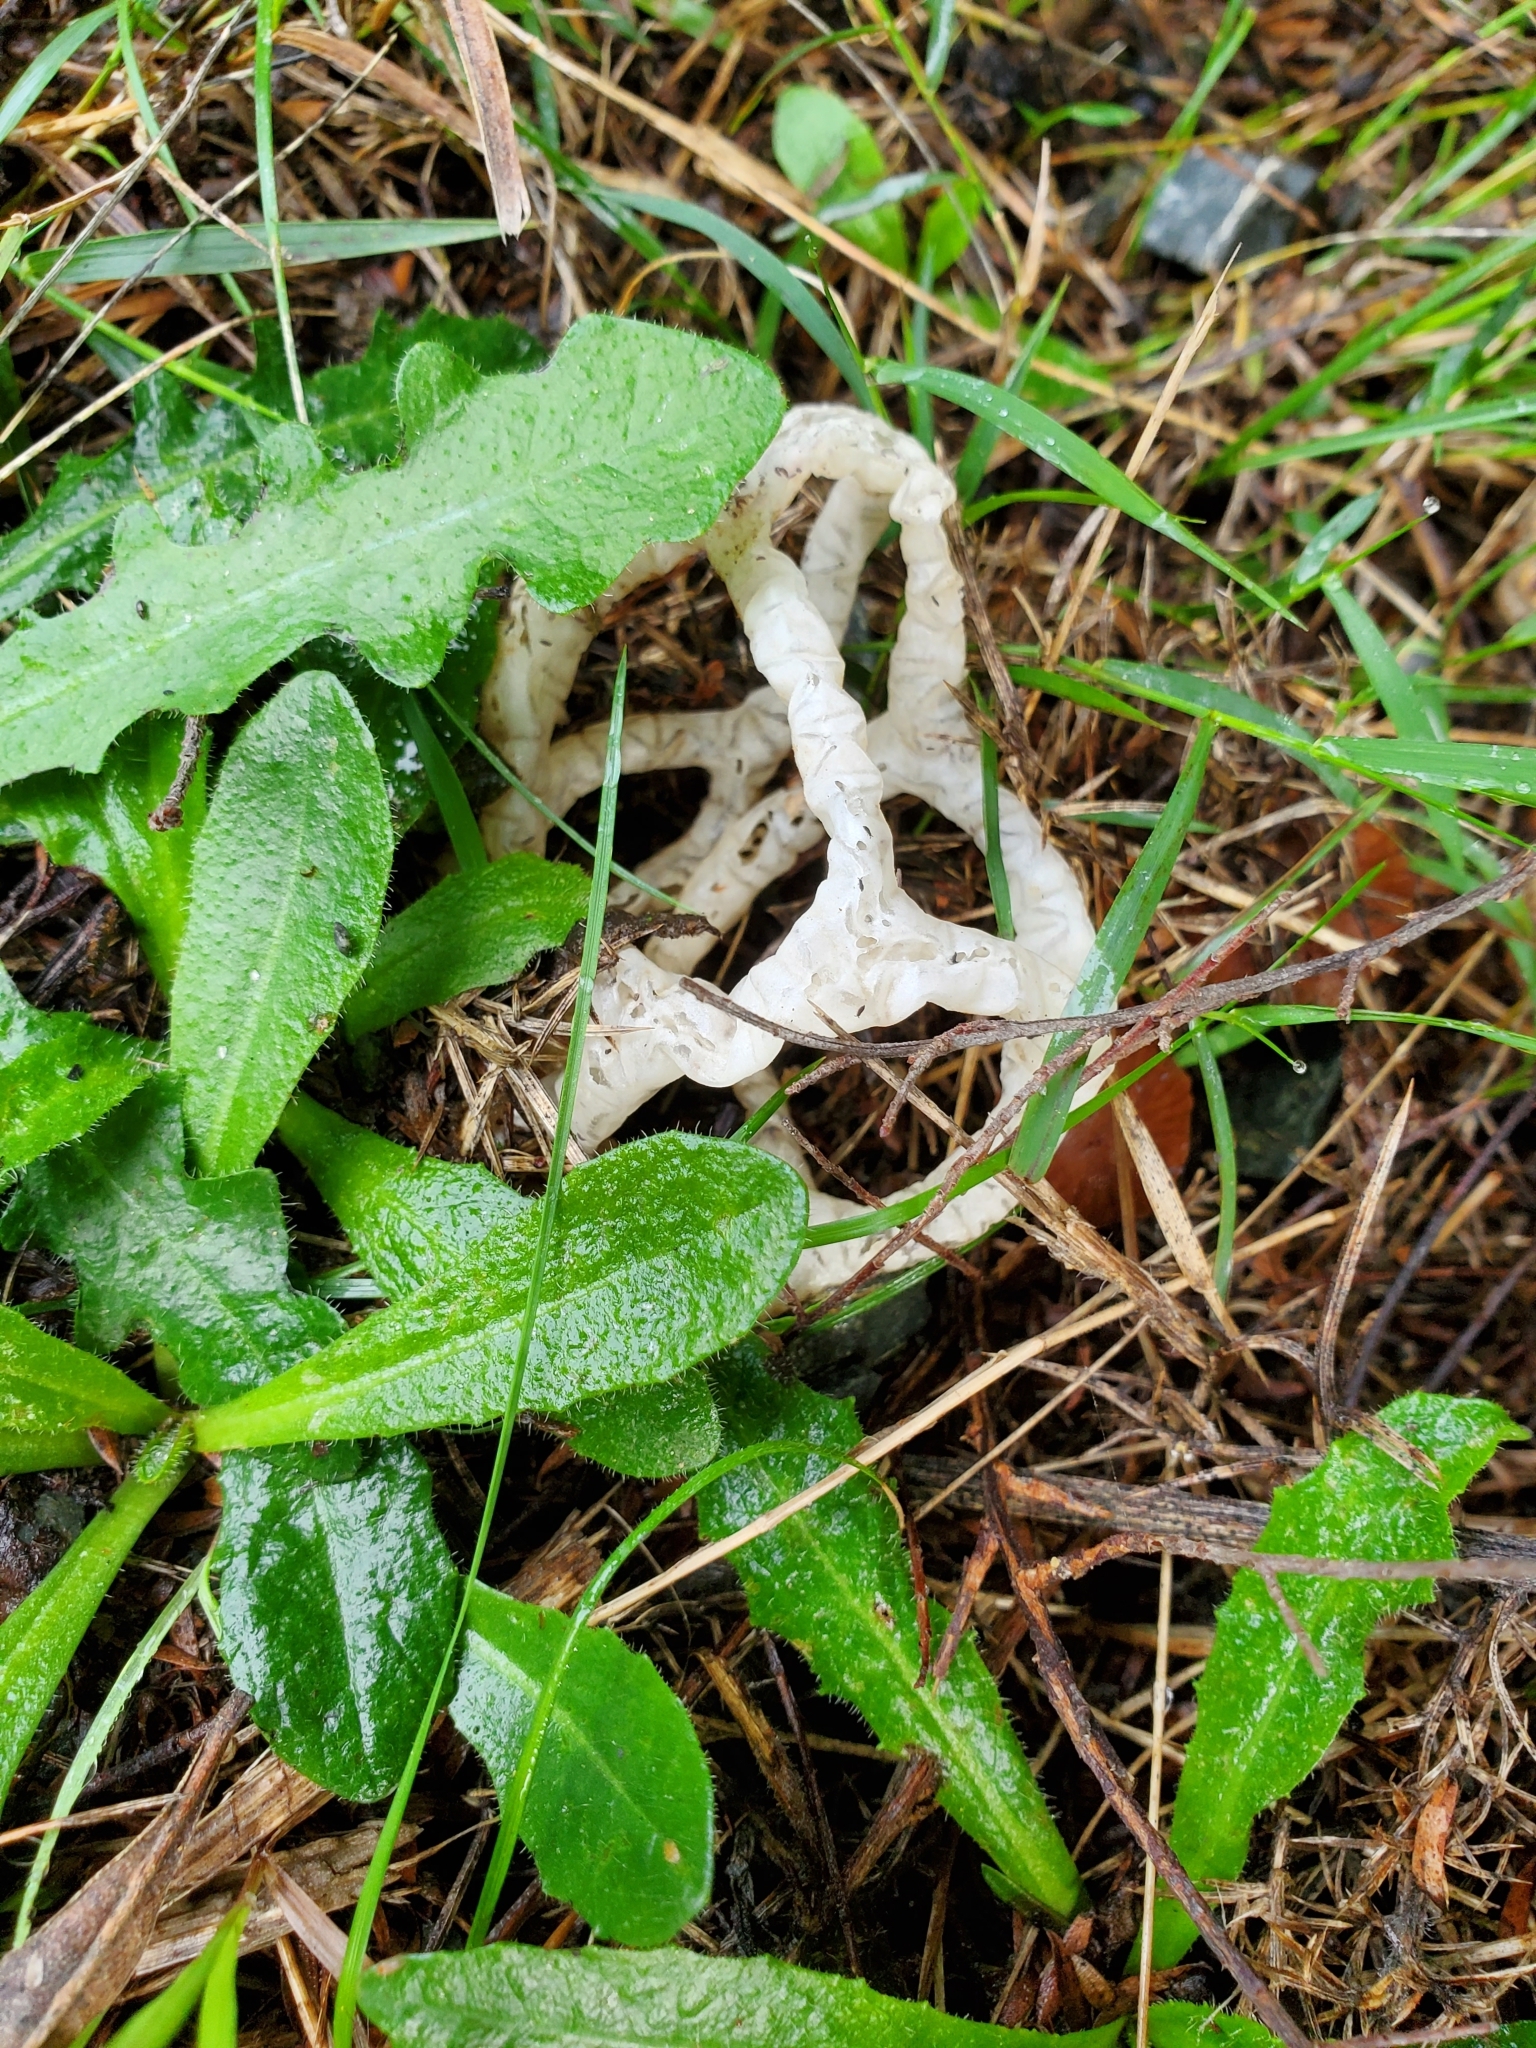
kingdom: Fungi
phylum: Basidiomycota
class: Agaricomycetes
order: Phallales
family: Phallaceae
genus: Ileodictyon
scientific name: Ileodictyon cibarium
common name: Basket fungus
